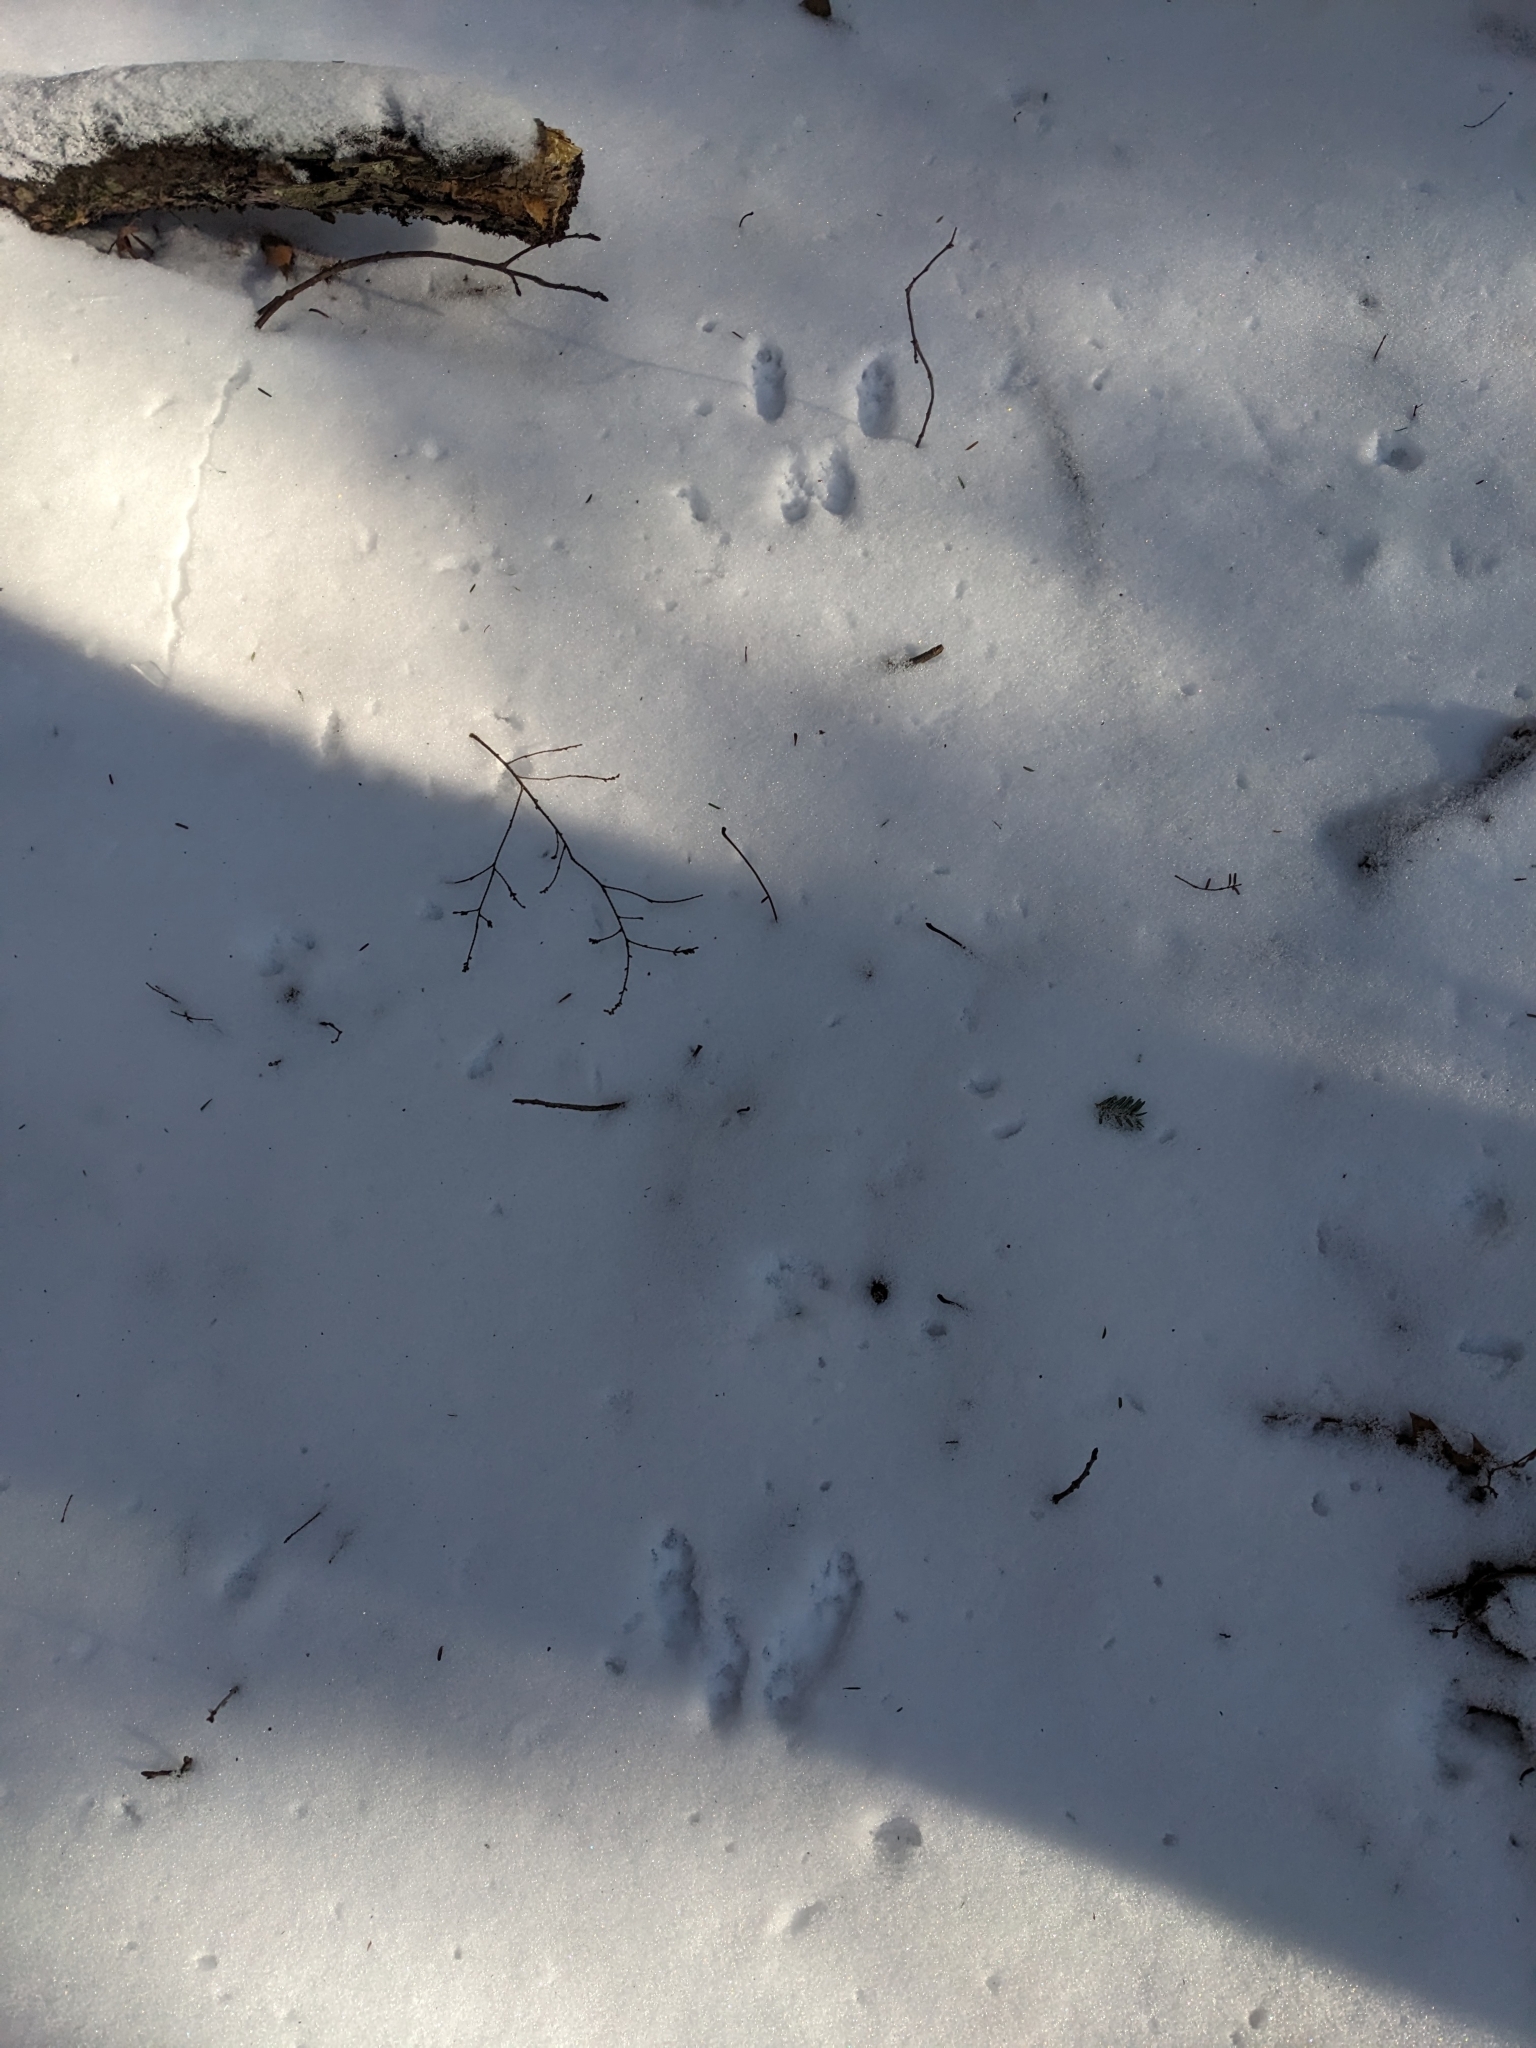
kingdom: Animalia
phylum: Chordata
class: Mammalia
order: Rodentia
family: Sciuridae
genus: Sciurus
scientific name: Sciurus carolinensis
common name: Eastern gray squirrel
